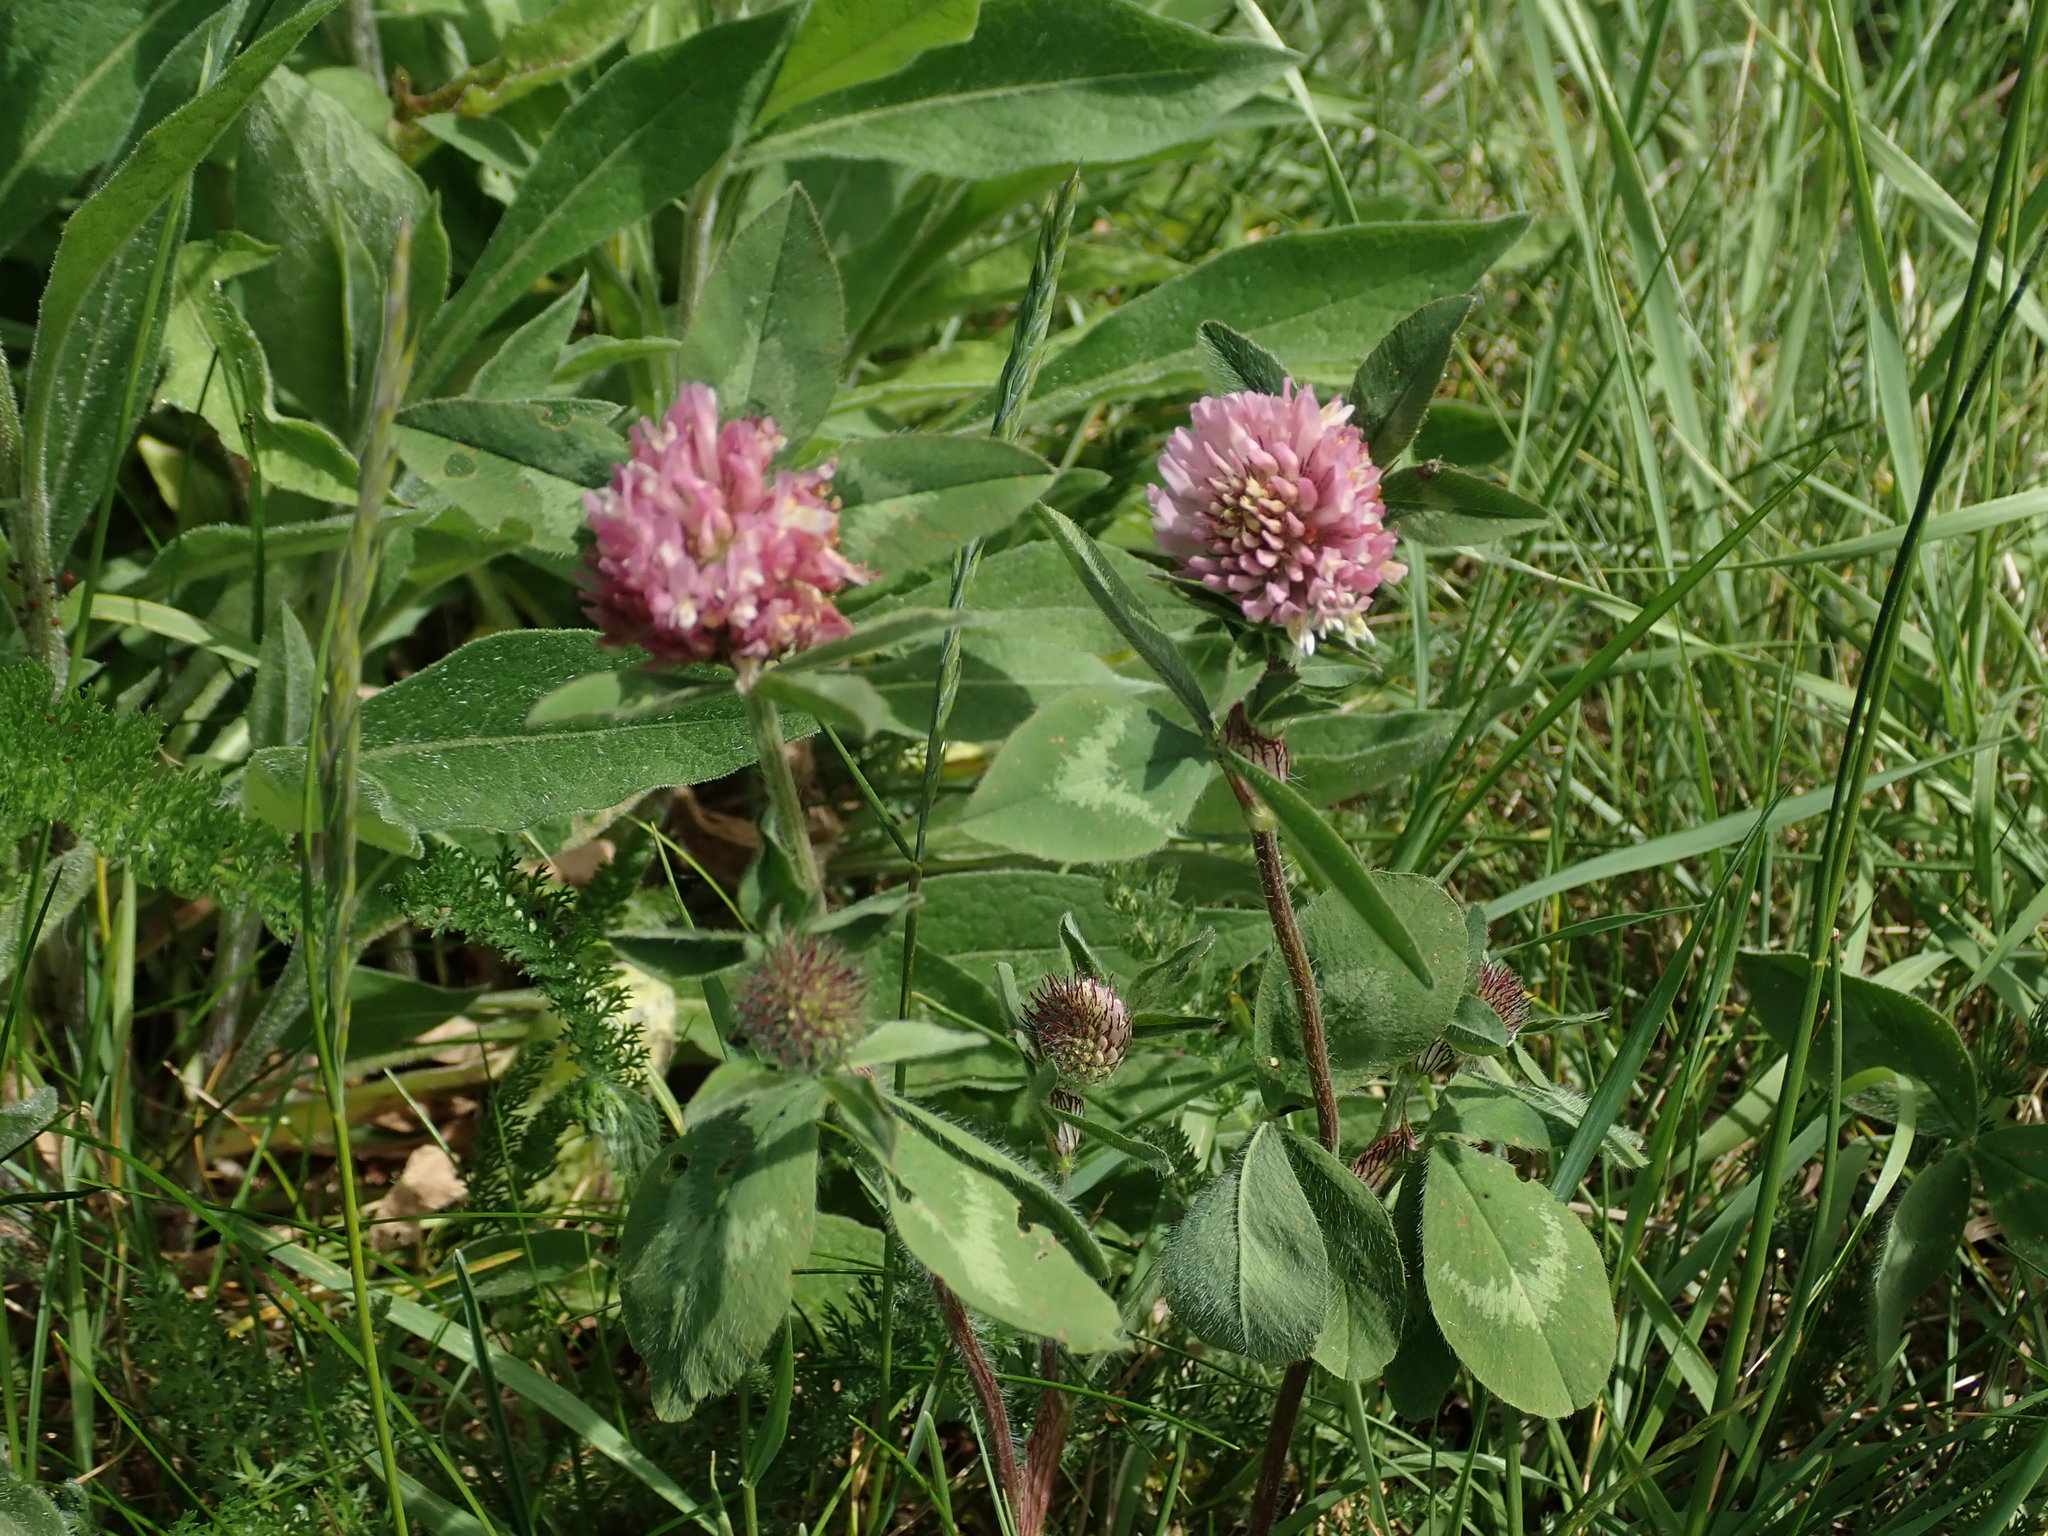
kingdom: Plantae
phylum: Tracheophyta
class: Magnoliopsida
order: Fabales
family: Fabaceae
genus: Trifolium
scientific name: Trifolium pratense
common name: Red clover
